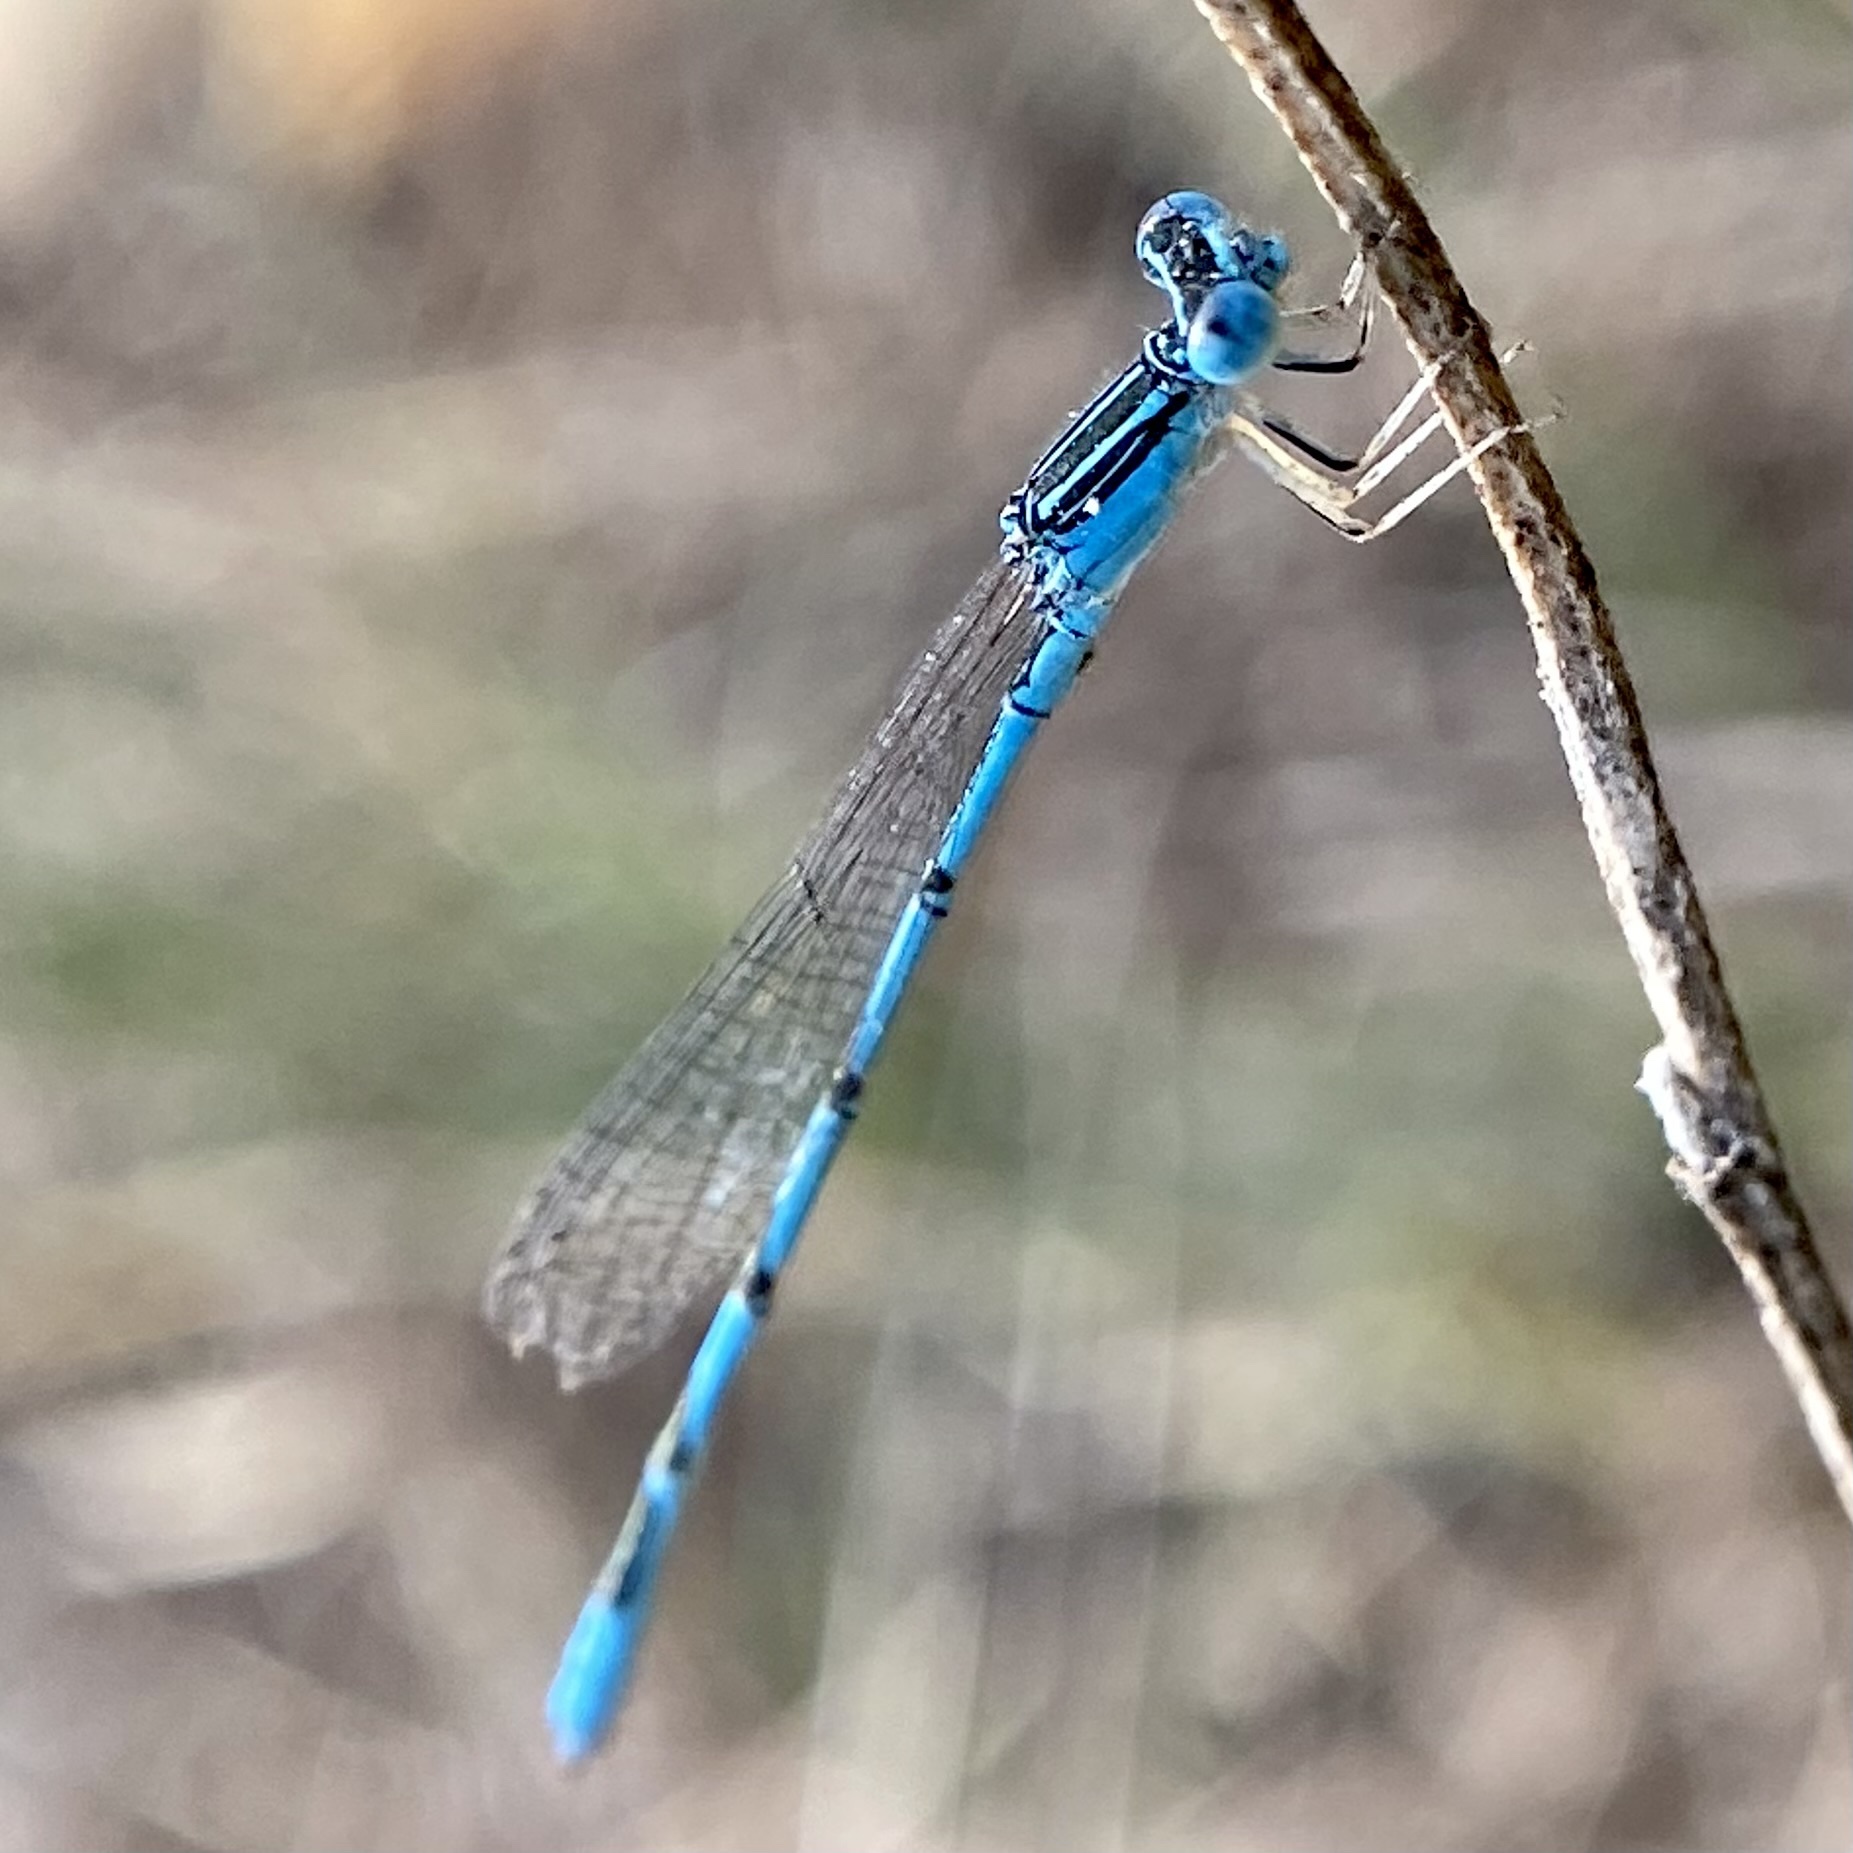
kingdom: Animalia
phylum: Arthropoda
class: Insecta
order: Odonata
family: Coenagrionidae
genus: Enallagma
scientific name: Enallagma basidens
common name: Double-striped bluet
